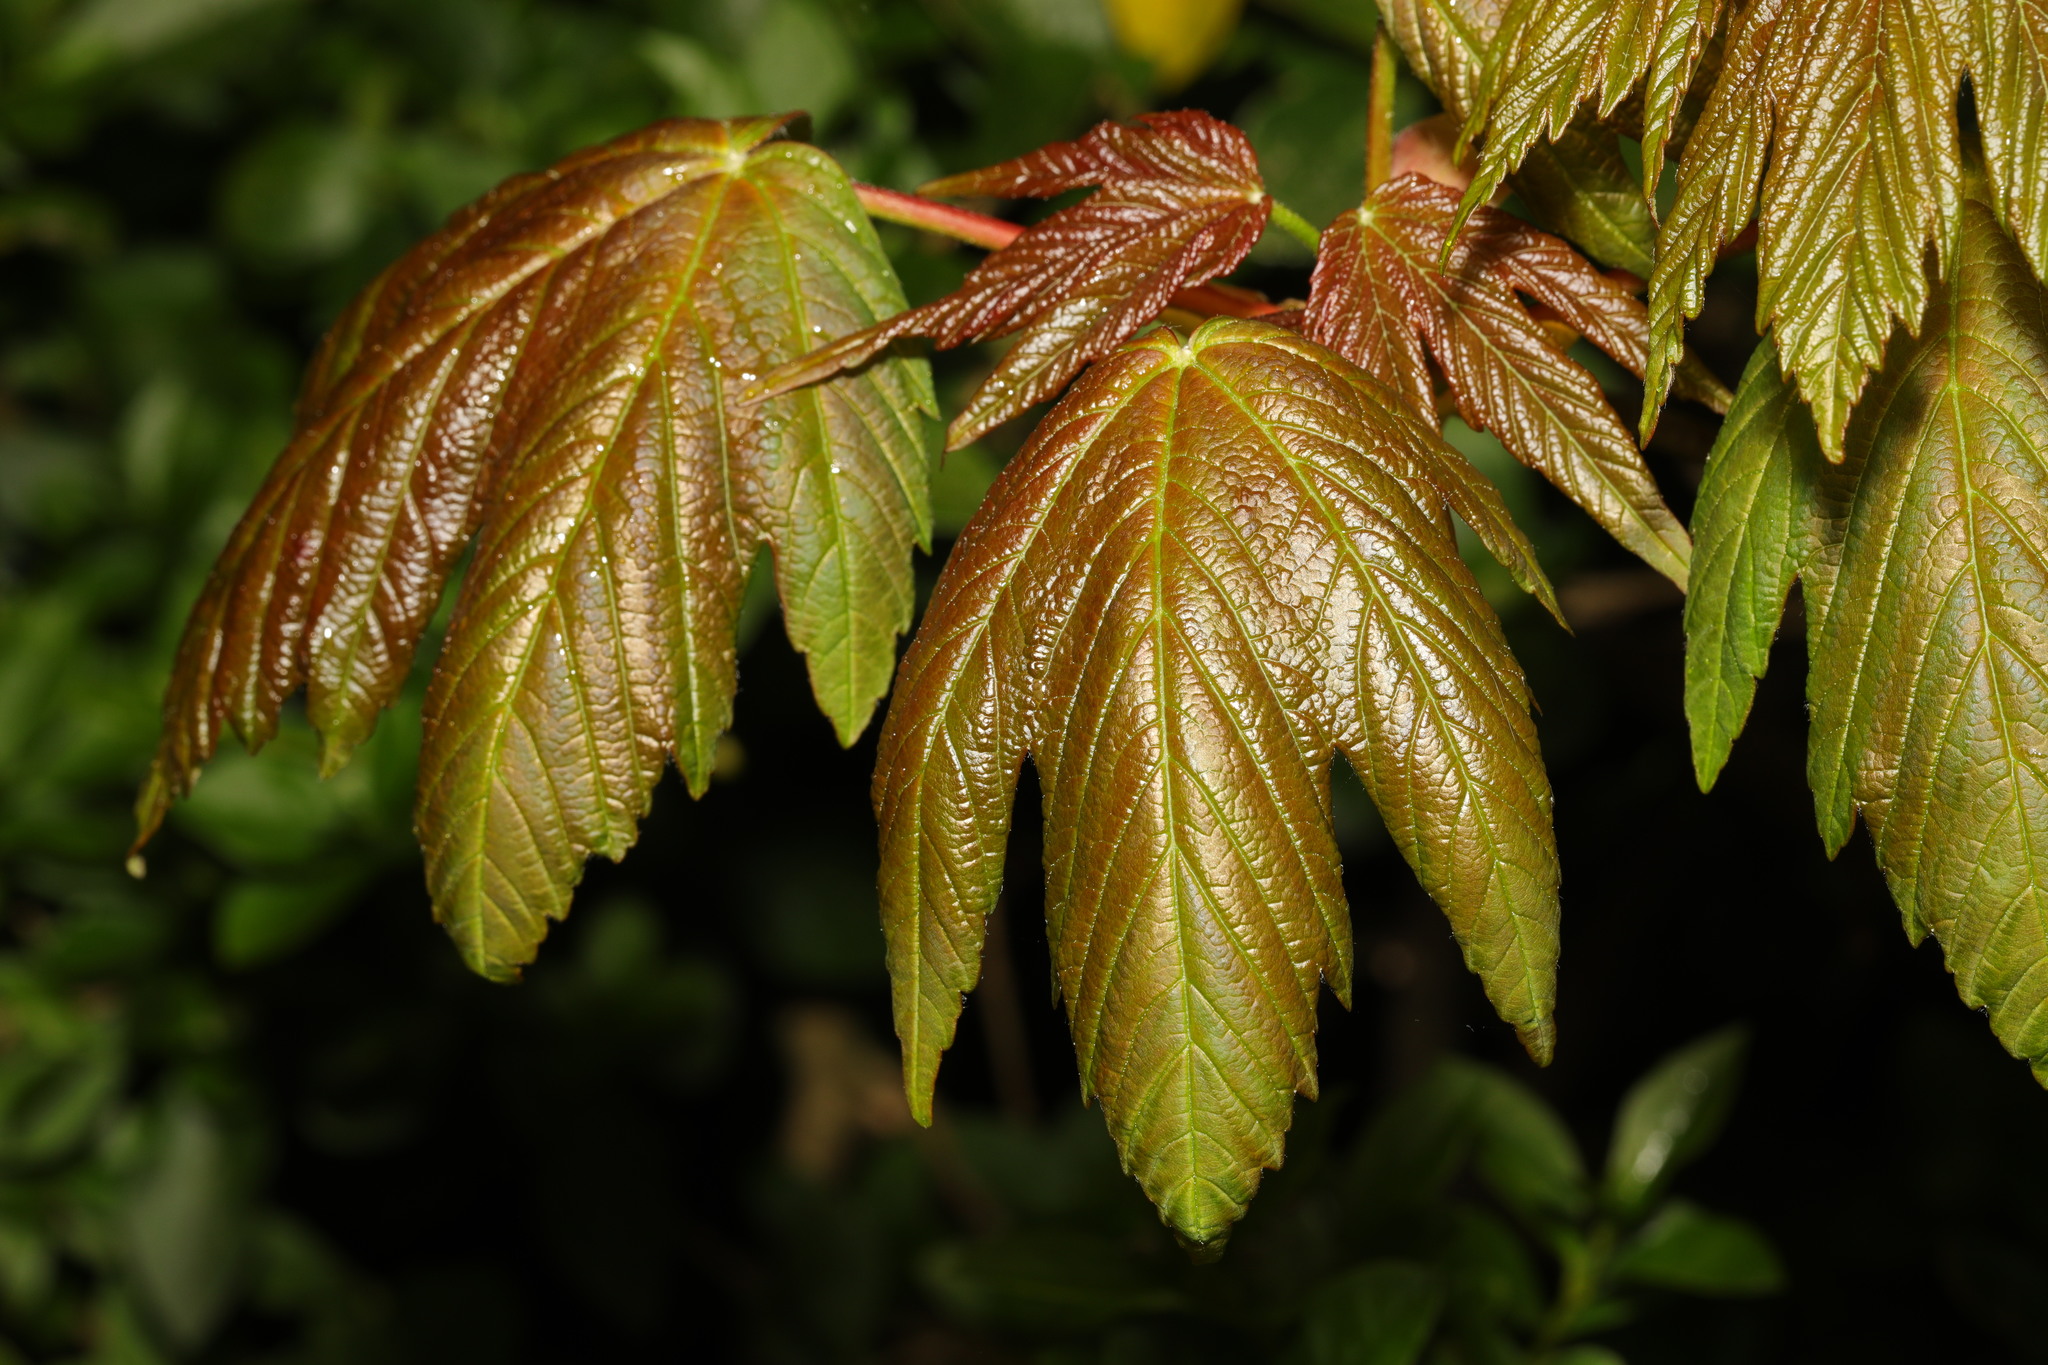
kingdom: Plantae
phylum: Tracheophyta
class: Magnoliopsida
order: Sapindales
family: Sapindaceae
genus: Acer
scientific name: Acer pseudoplatanus
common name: Sycamore
